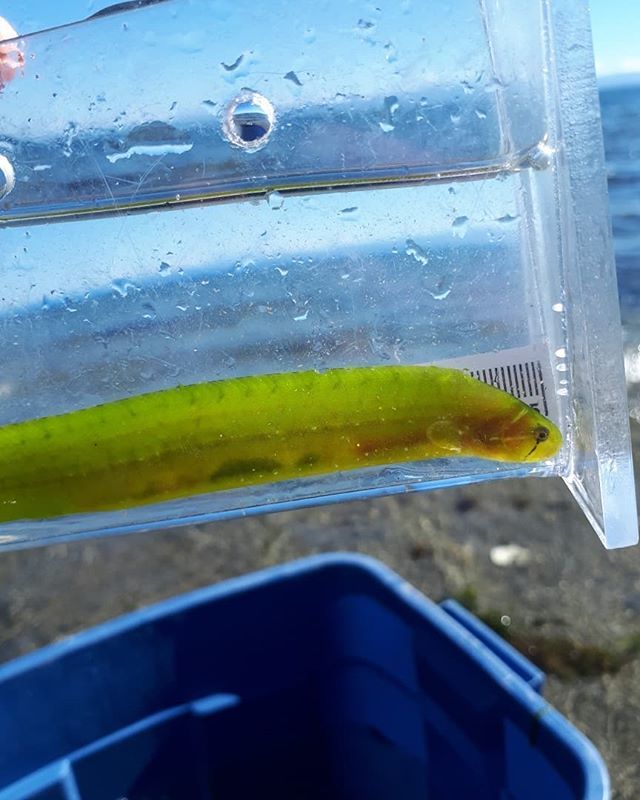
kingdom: Animalia
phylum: Chordata
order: Perciformes
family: Pholidae
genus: Apodichthys
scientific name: Apodichthys flavidus
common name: Penpoint gunnel
